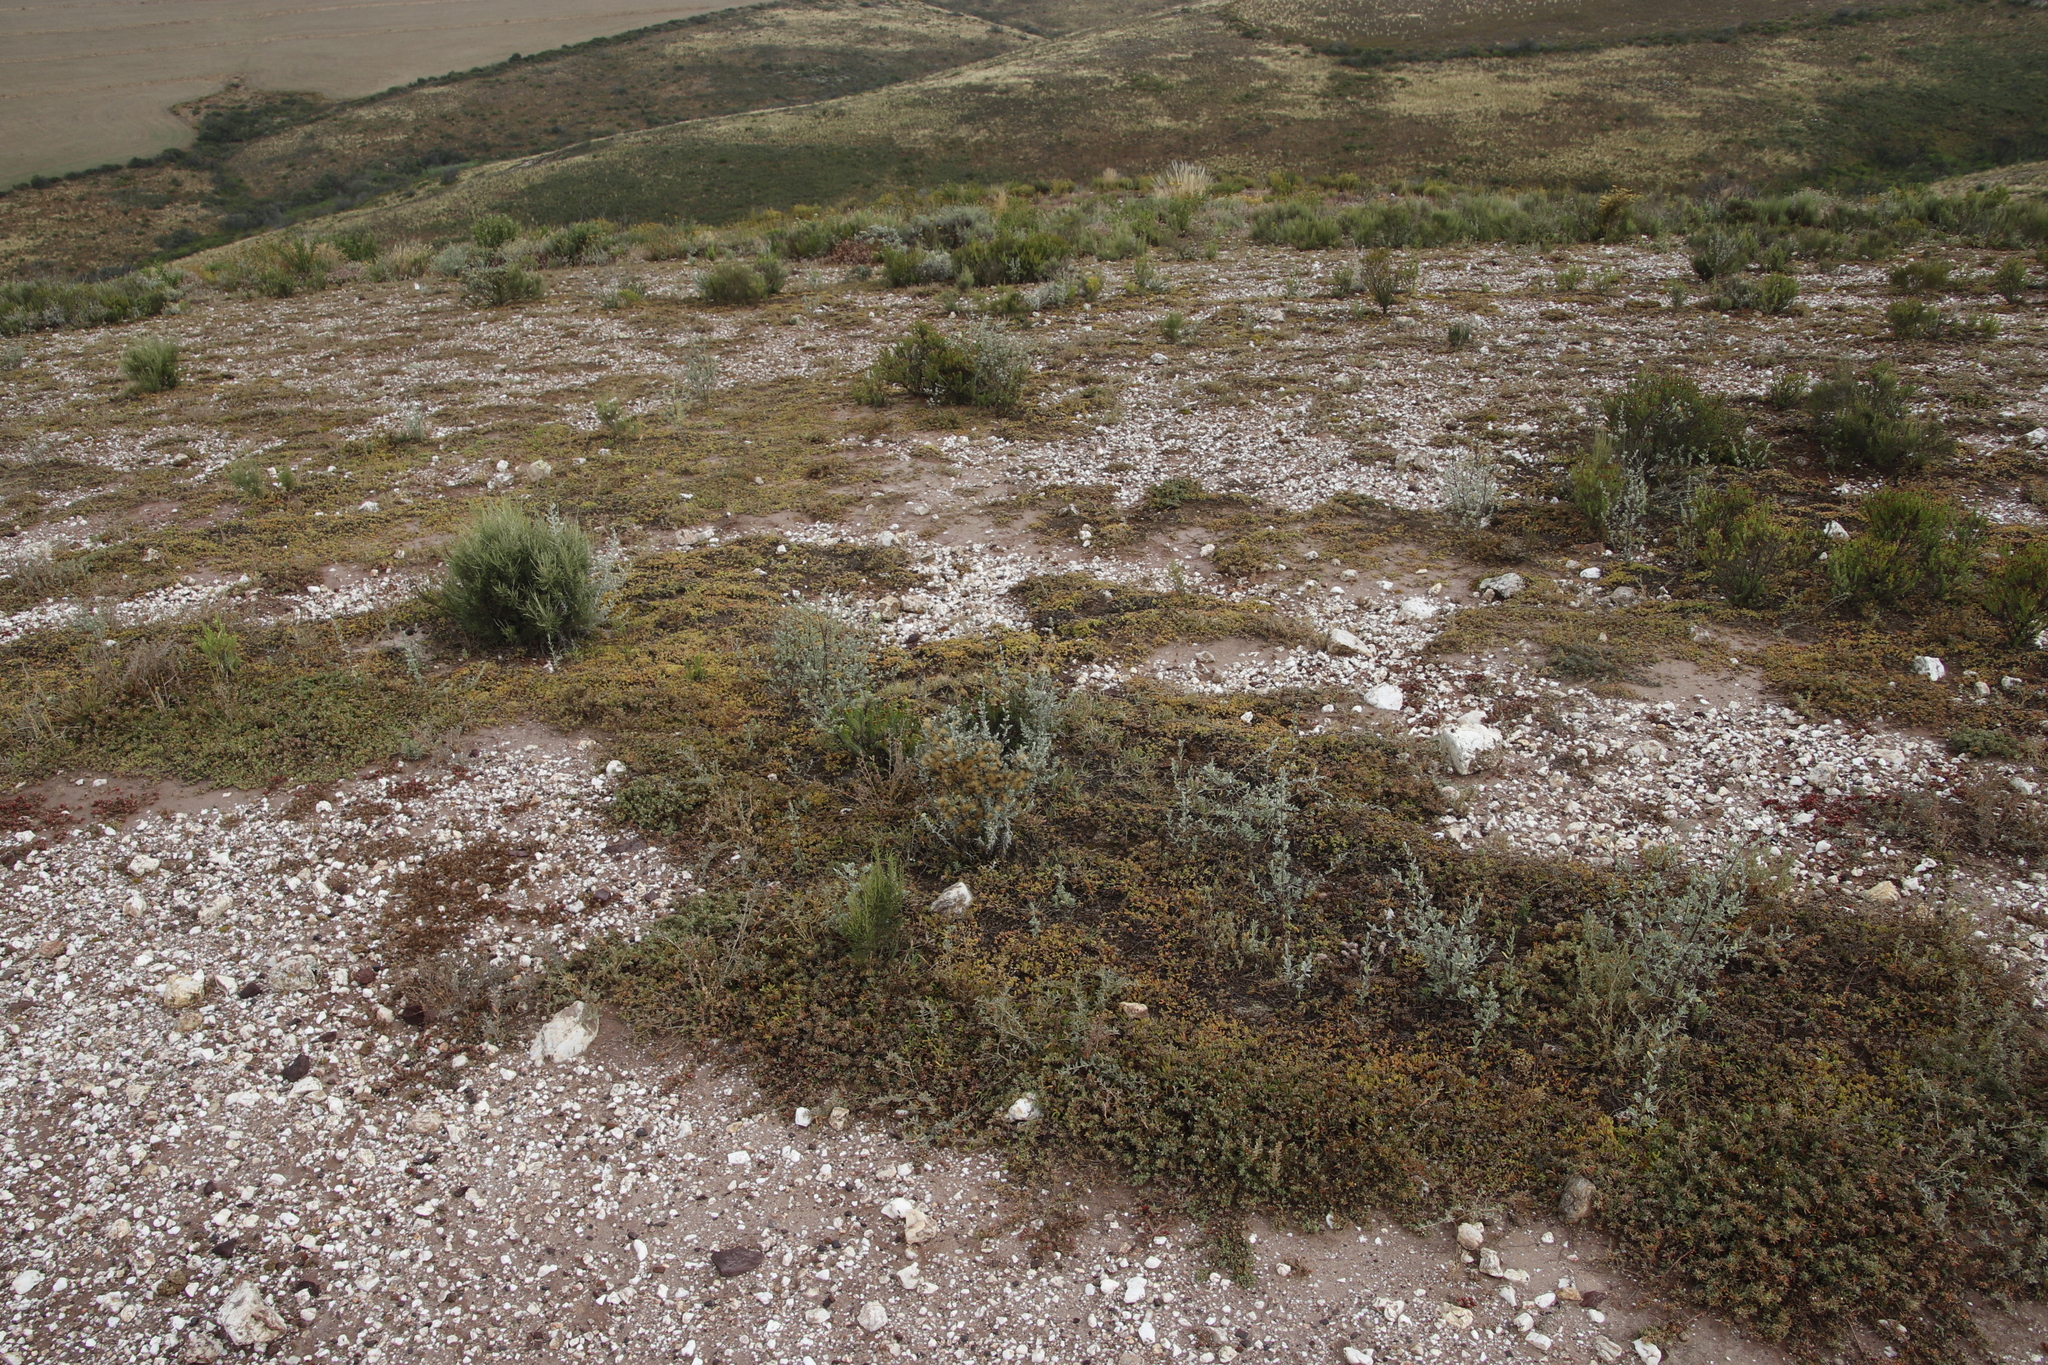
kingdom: Plantae
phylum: Tracheophyta
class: Magnoliopsida
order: Asterales
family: Asteraceae
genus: Pteronia
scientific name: Pteronia incana
